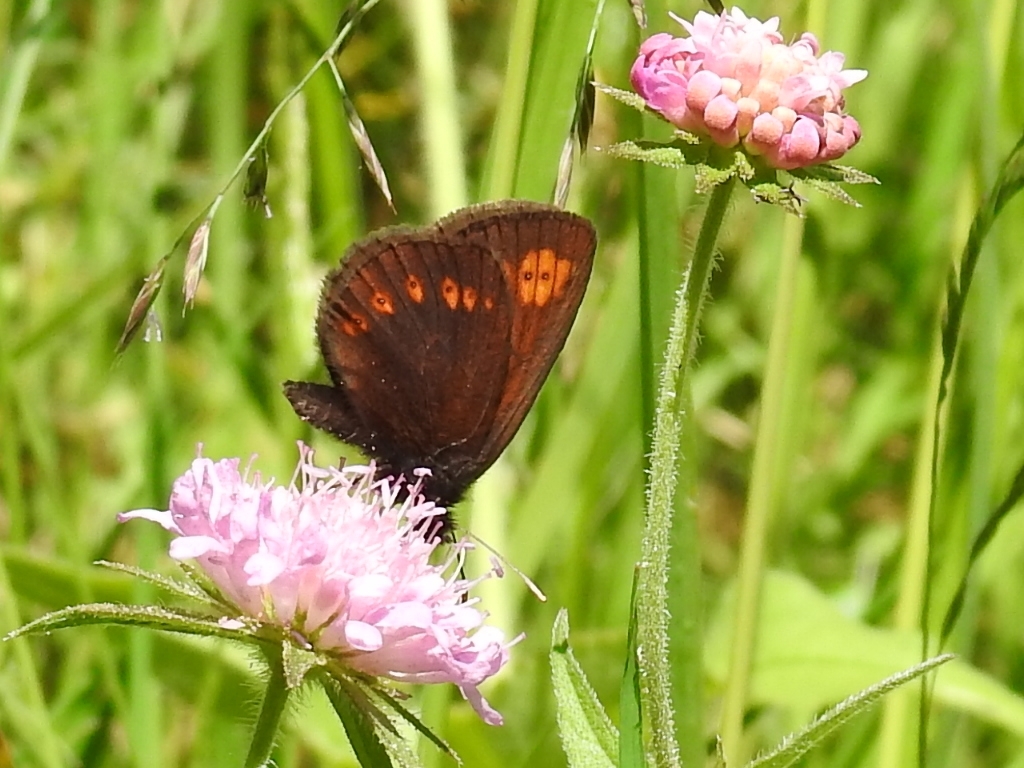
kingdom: Animalia
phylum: Arthropoda
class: Insecta
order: Lepidoptera
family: Nymphalidae
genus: Erebia
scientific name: Erebia alberganus
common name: Almond-eyed ringlet
